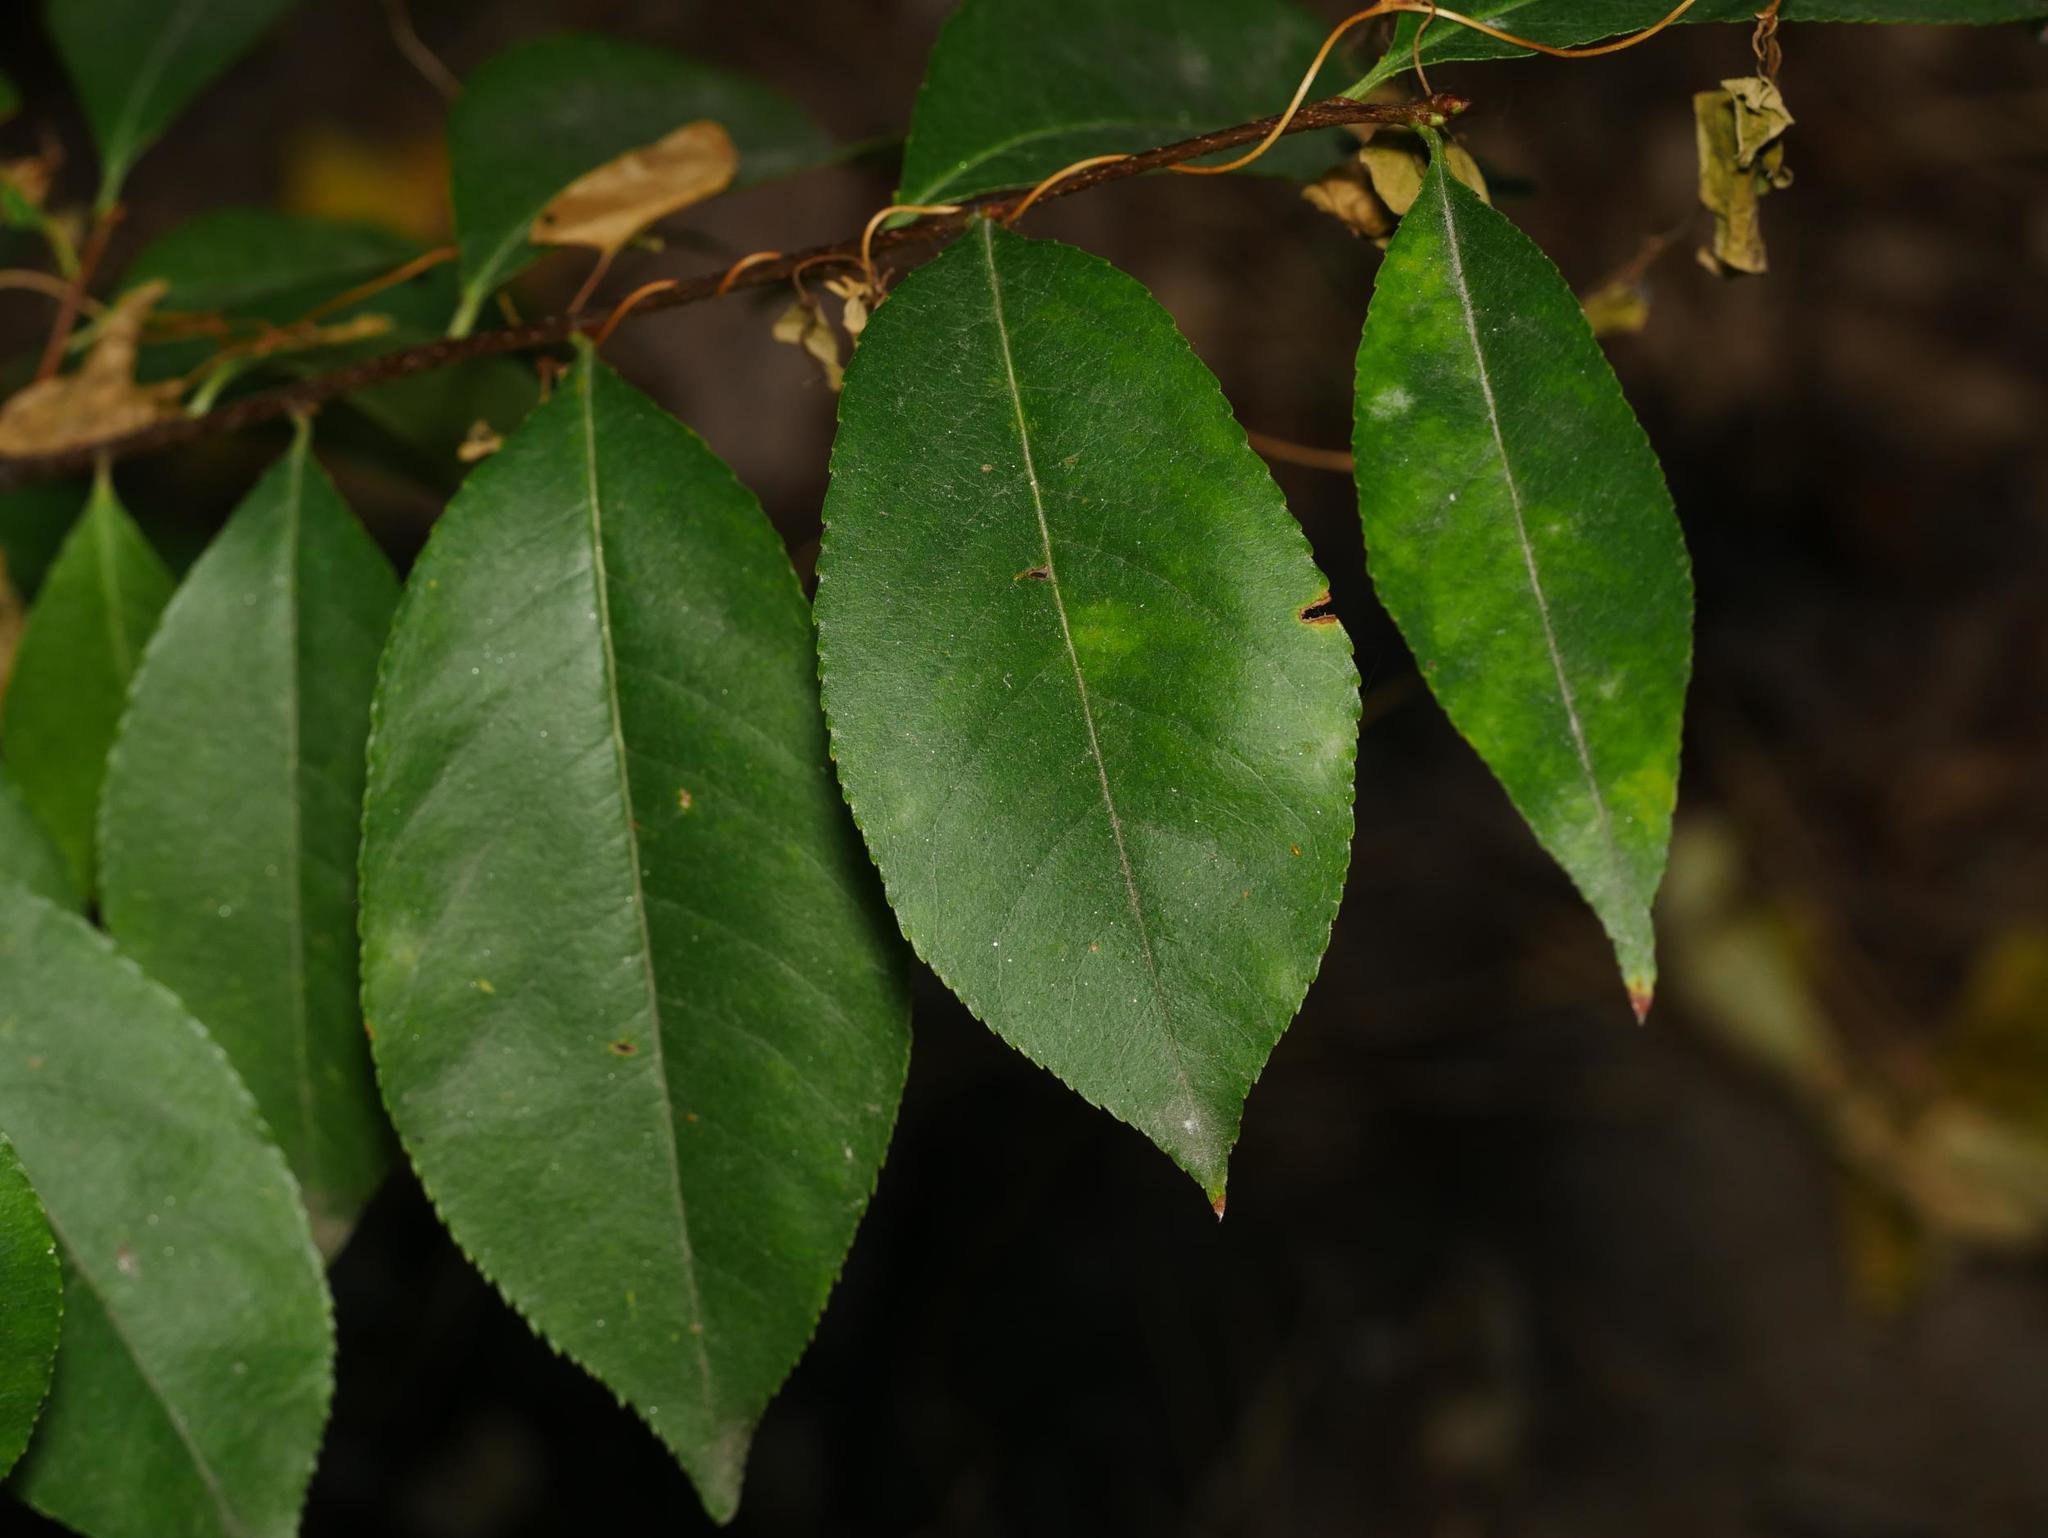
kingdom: Plantae
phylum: Tracheophyta
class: Magnoliopsida
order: Rosales
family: Rosaceae
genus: Prunus
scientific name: Prunus serotina
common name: Black cherry
